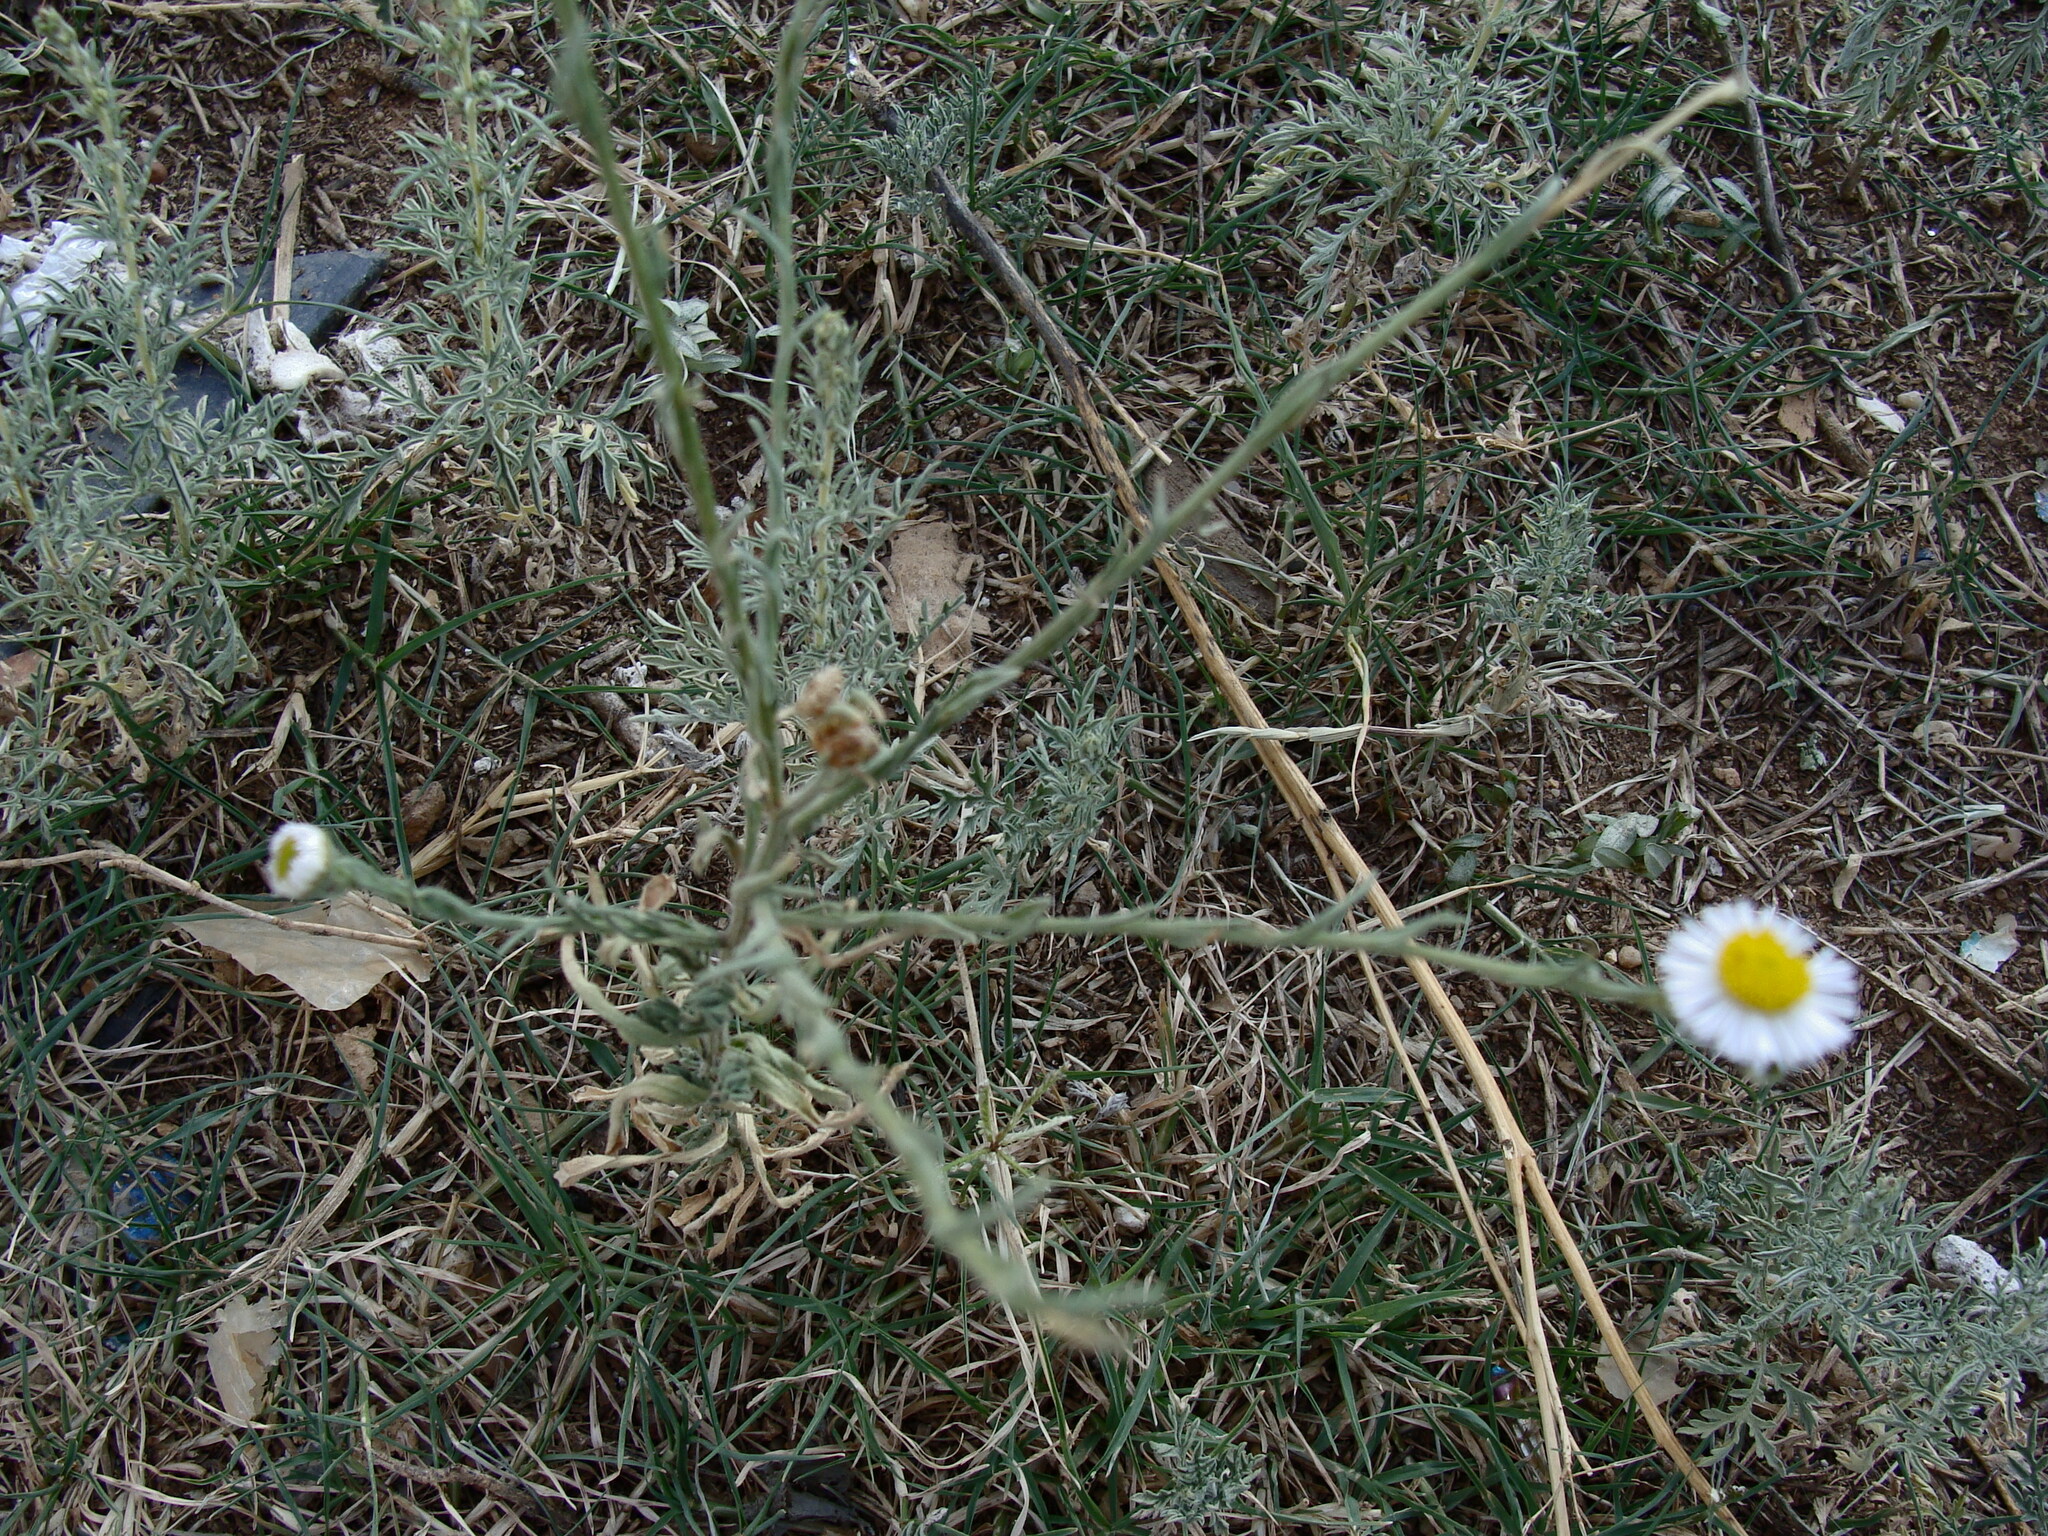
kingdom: Plantae
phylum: Tracheophyta
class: Magnoliopsida
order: Asterales
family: Asteraceae
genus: Erigeron
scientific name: Erigeron modestus
